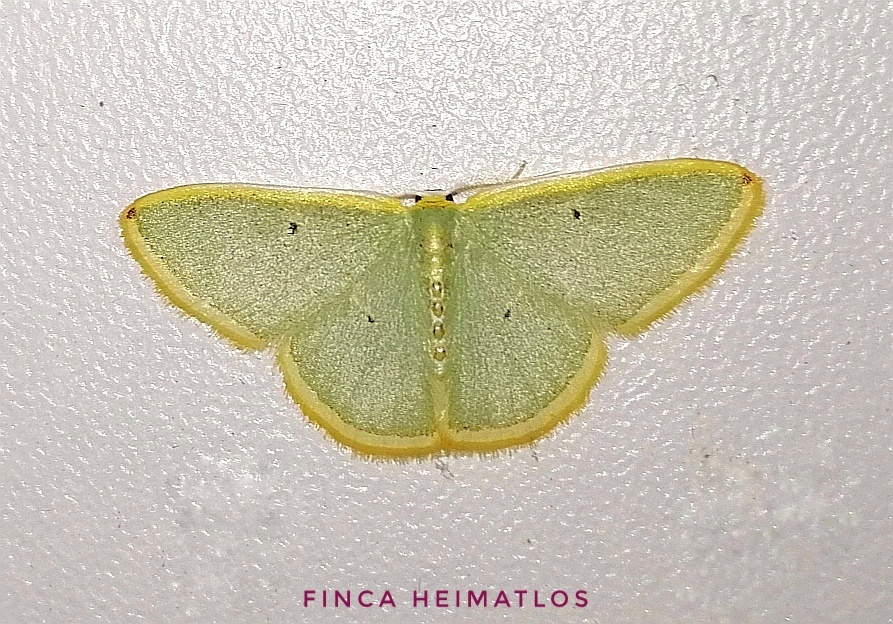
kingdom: Animalia
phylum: Arthropoda
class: Insecta
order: Lepidoptera
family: Geometridae
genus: Oospila
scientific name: Oospila permagna
